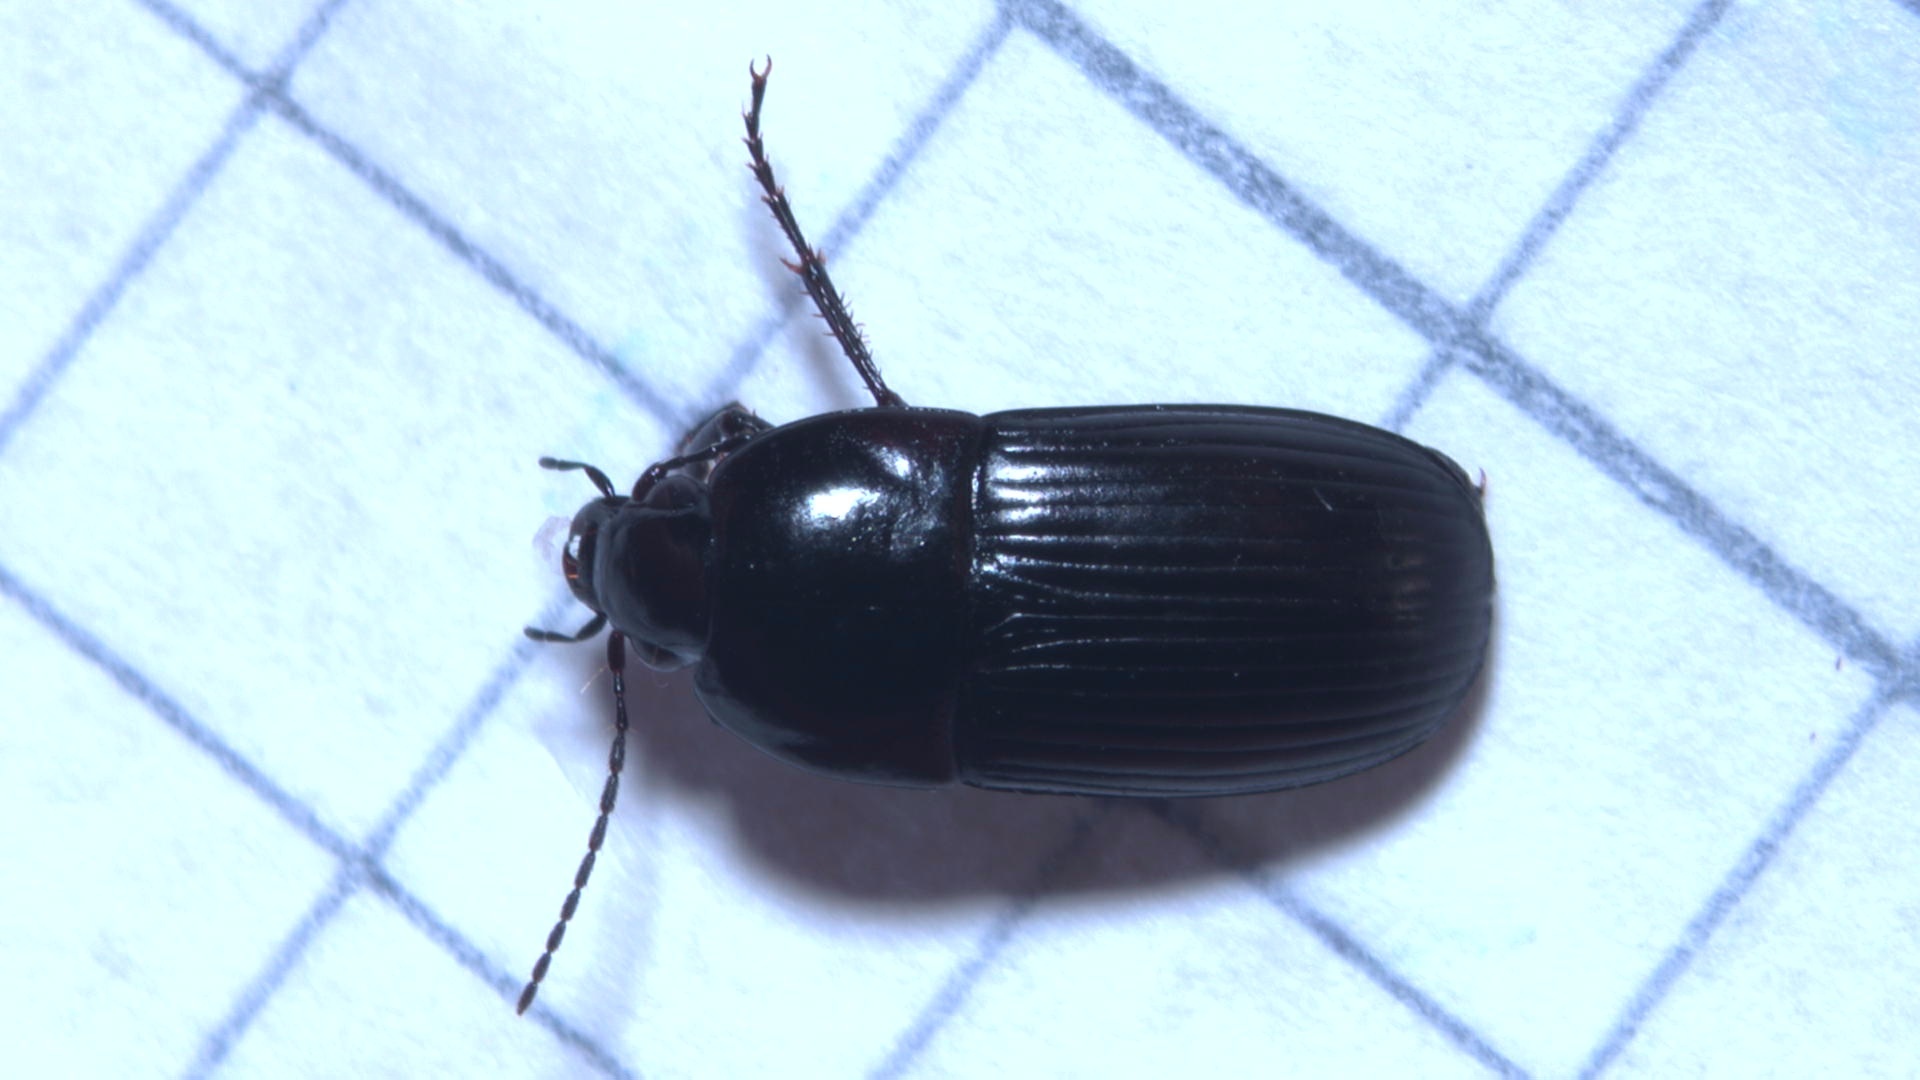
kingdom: Animalia
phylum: Arthropoda
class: Insecta
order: Coleoptera
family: Carabidae
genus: Oodes
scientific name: Oodes helopioides
